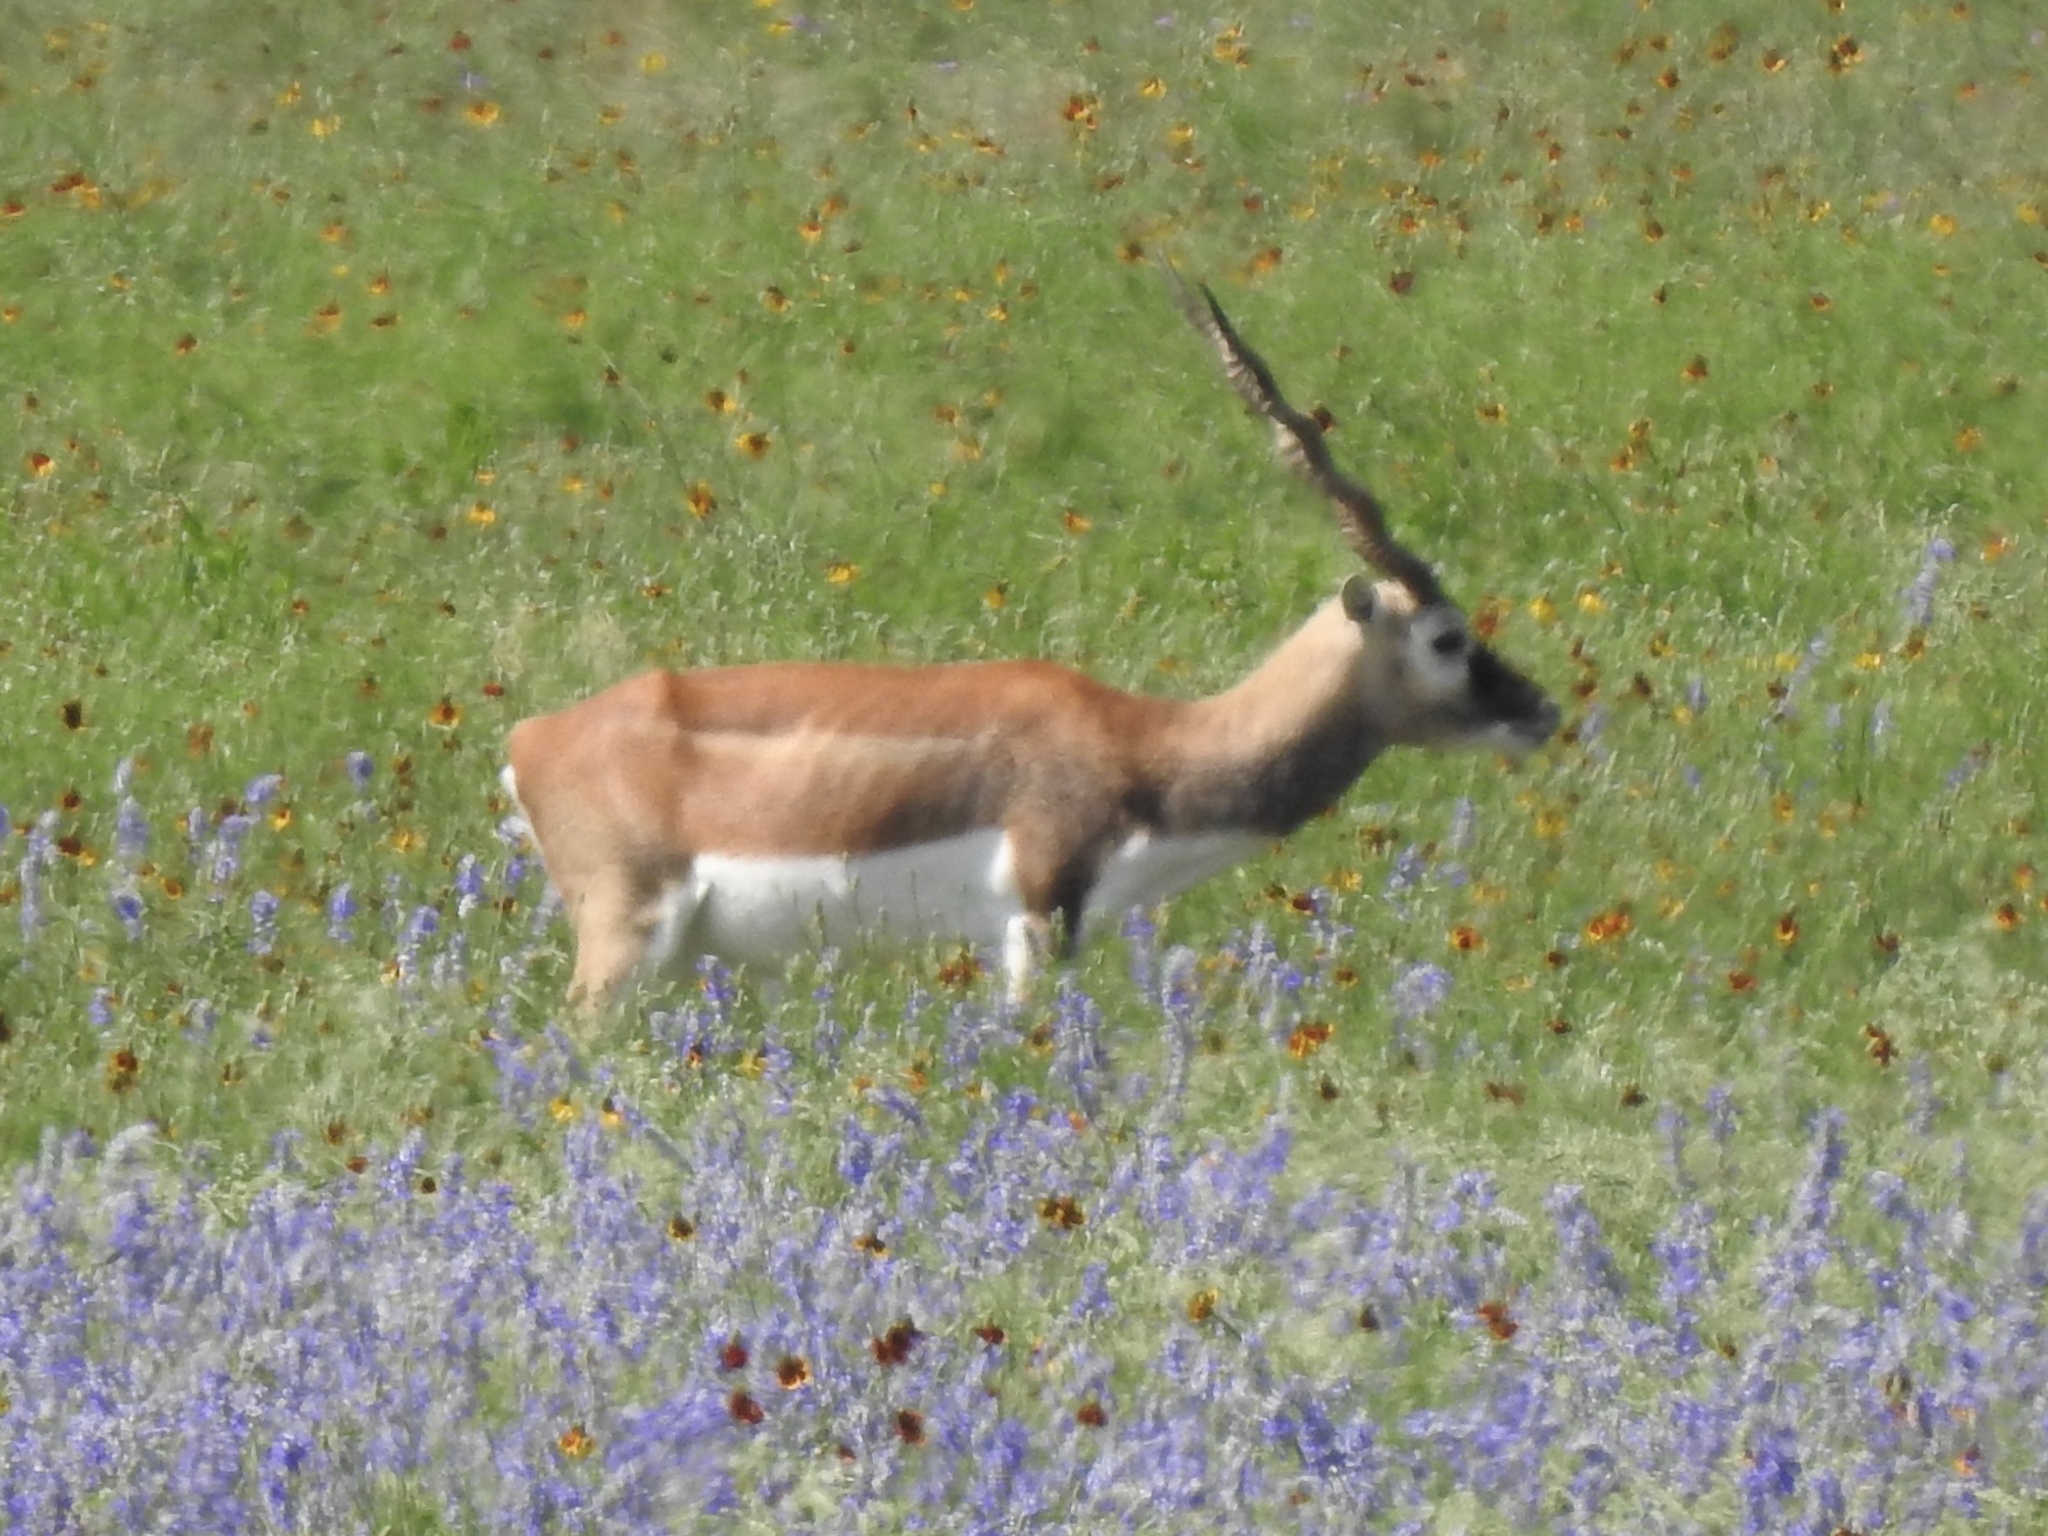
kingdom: Animalia
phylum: Chordata
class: Mammalia
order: Artiodactyla
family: Bovidae
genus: Antilope
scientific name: Antilope cervicapra
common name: Blackbuck
